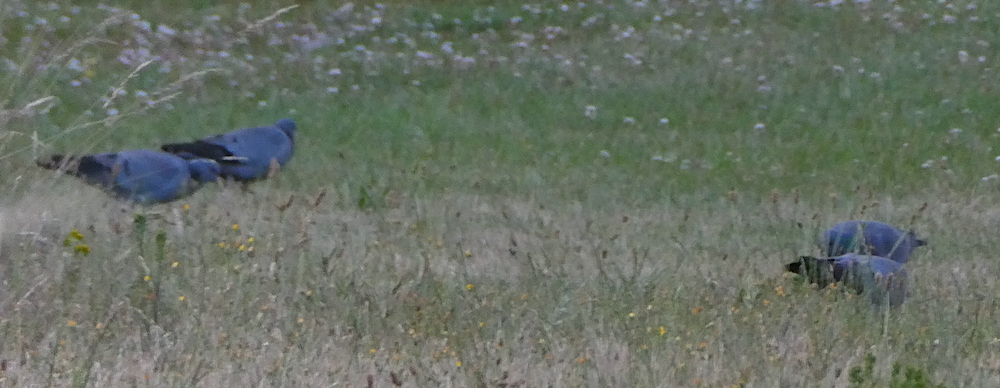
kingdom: Animalia
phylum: Chordata
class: Aves
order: Columbiformes
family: Columbidae
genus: Columba
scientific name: Columba oenas
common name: Stock dove
